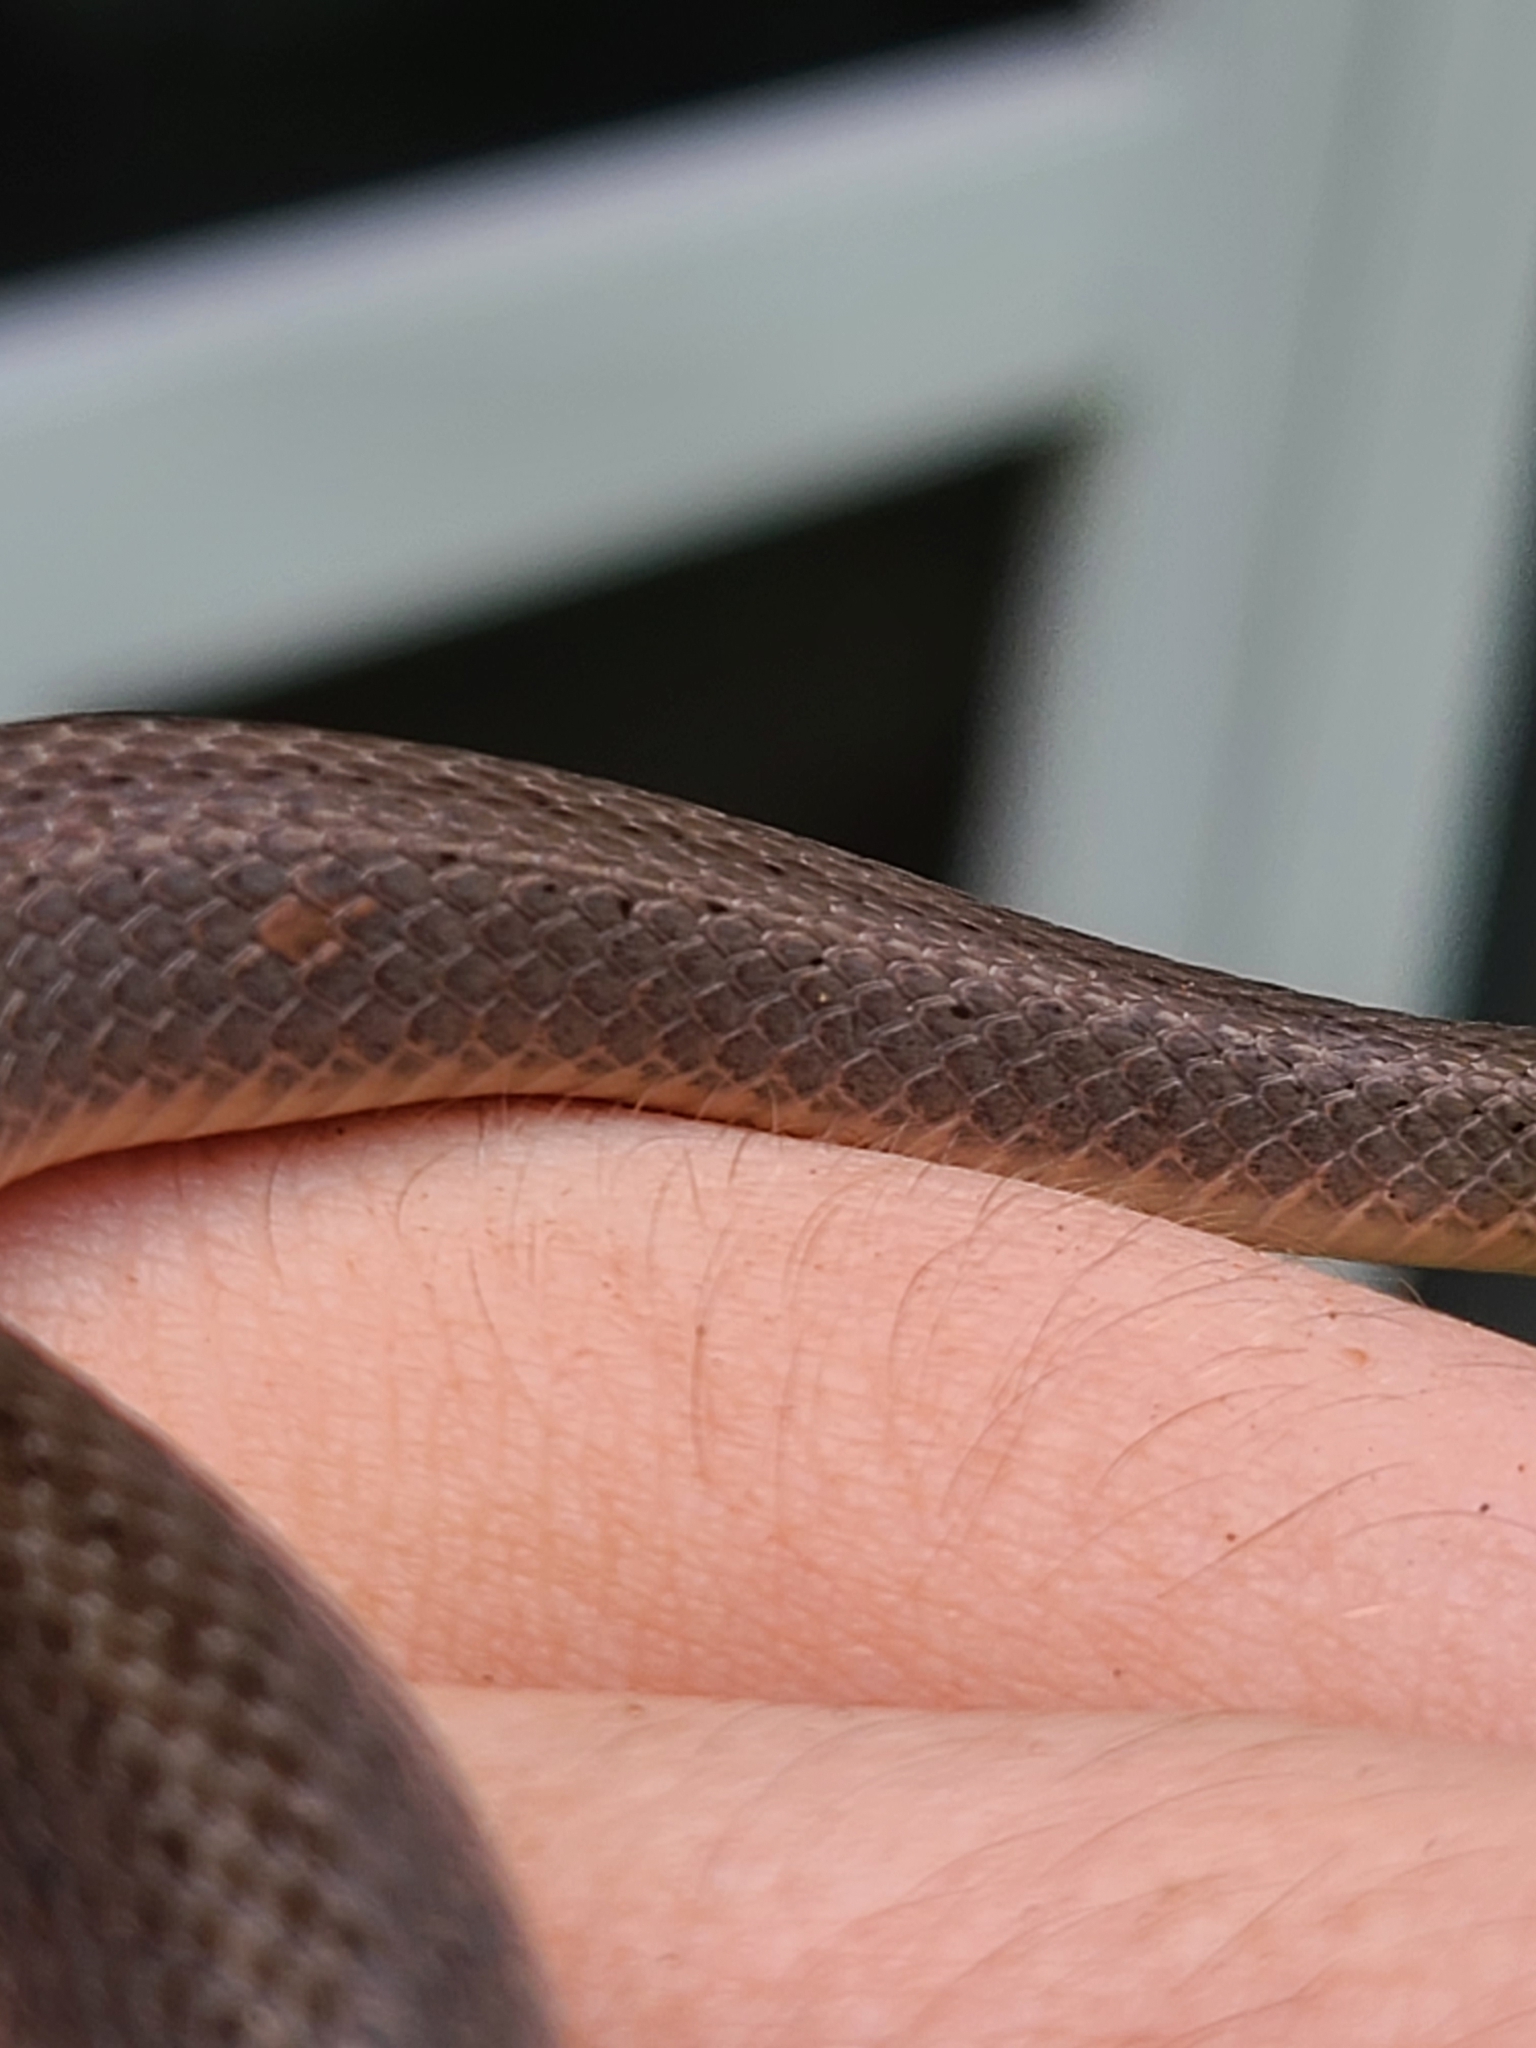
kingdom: Animalia
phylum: Chordata
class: Squamata
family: Colubridae
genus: Virginia
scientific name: Virginia valeriae
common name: Smooth earth snake
